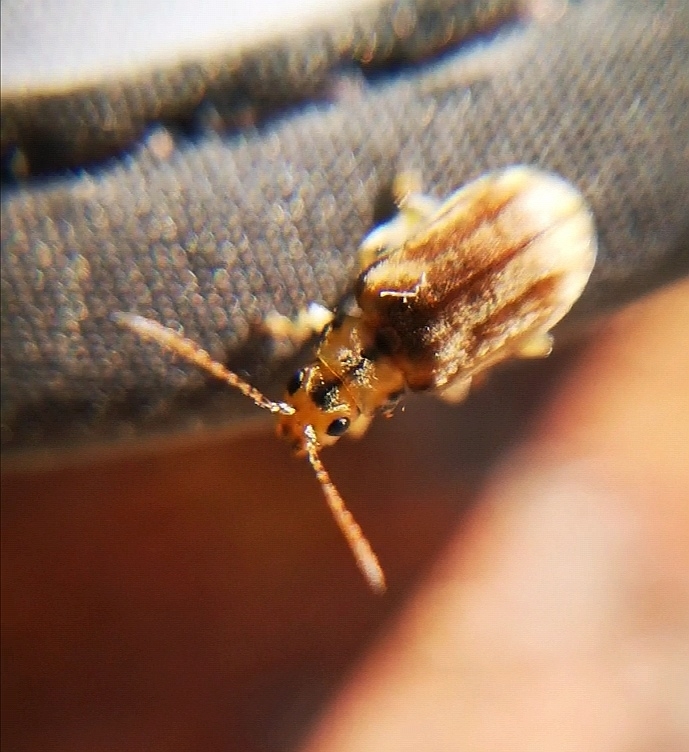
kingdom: Animalia
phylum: Arthropoda
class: Insecta
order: Coleoptera
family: Chrysomelidae
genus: Pyrrhalta
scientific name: Pyrrhalta viburni
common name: Guelder-rose leaf beetle
